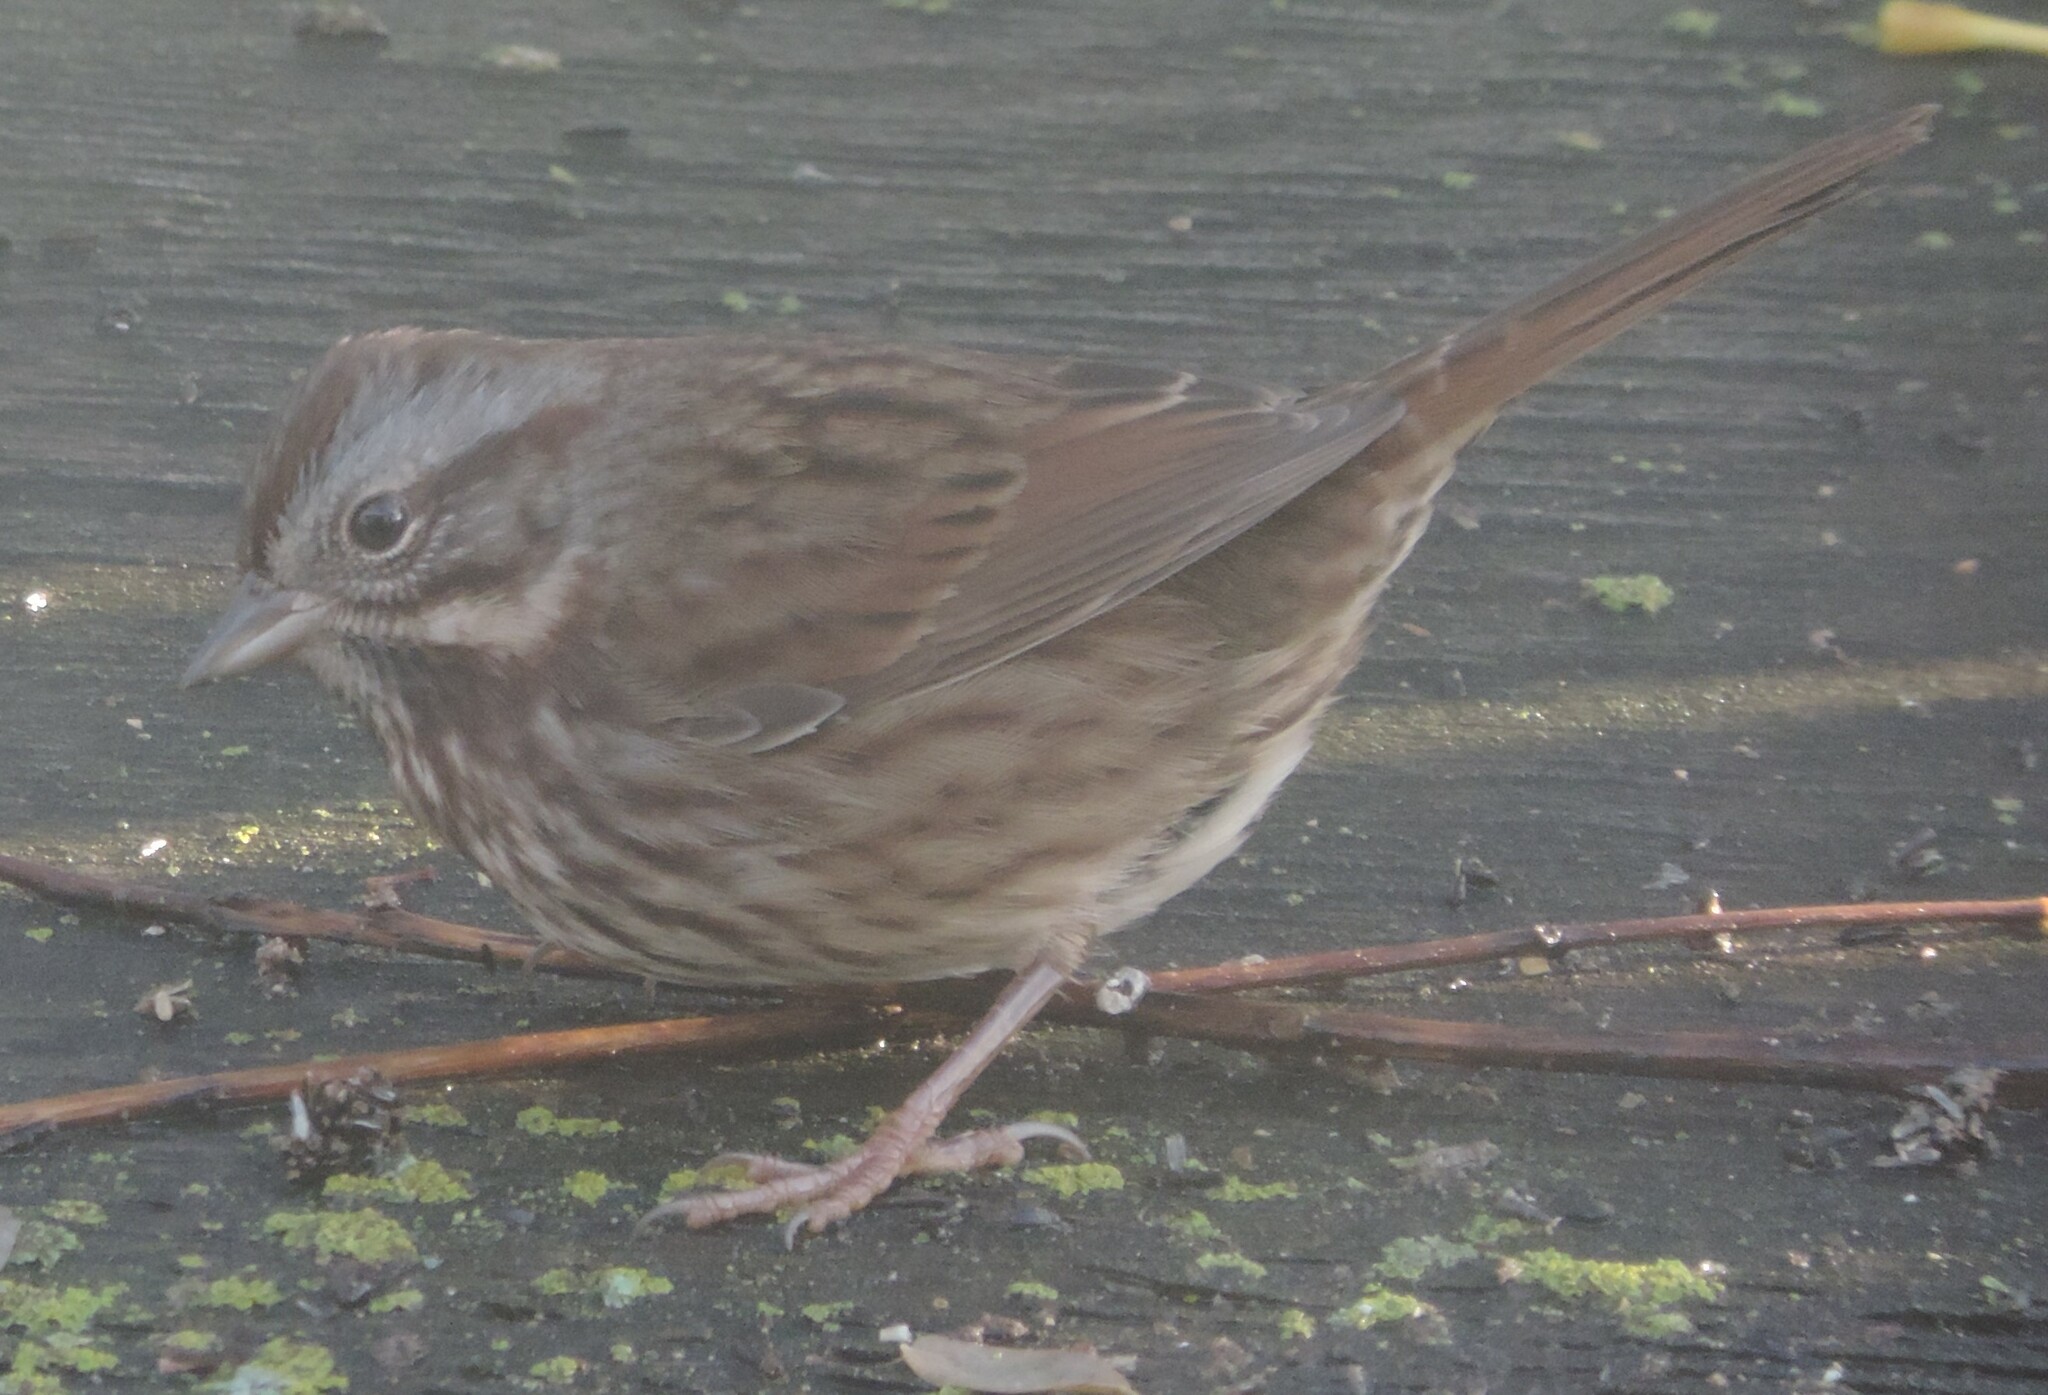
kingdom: Animalia
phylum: Chordata
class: Aves
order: Passeriformes
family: Passerellidae
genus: Melospiza
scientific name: Melospiza melodia
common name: Song sparrow
